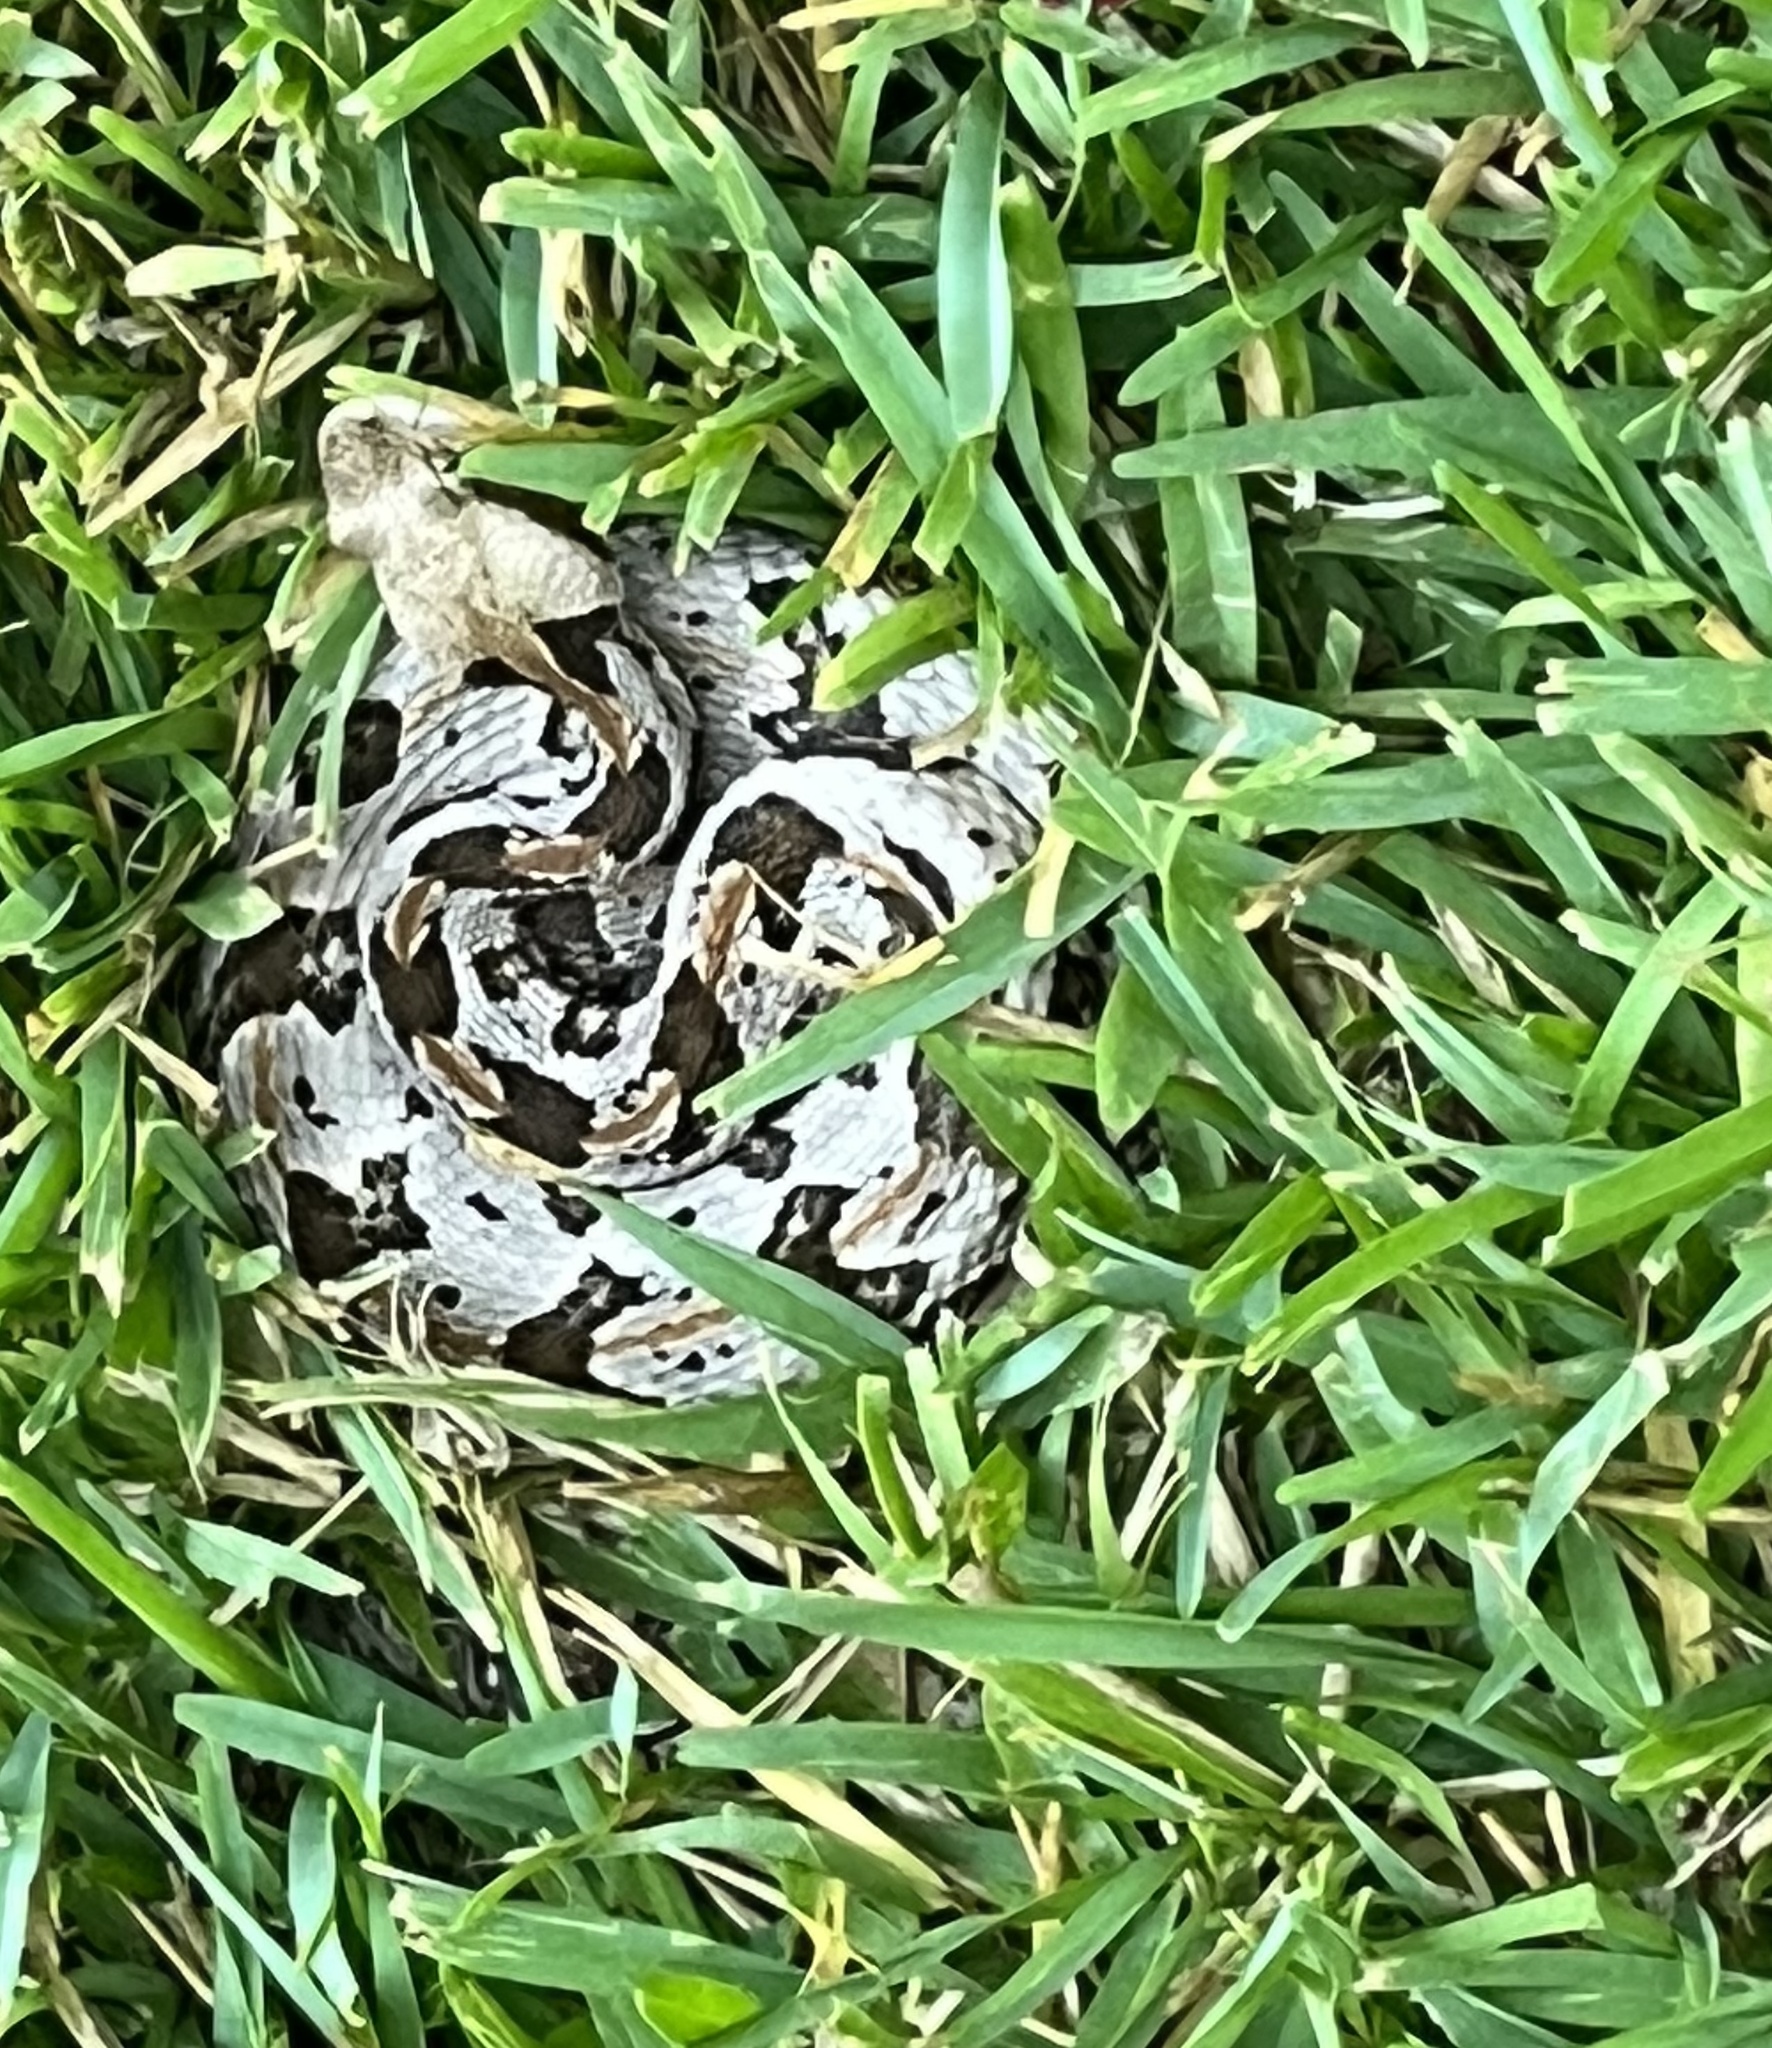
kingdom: Animalia
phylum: Chordata
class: Squamata
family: Viperidae
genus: Crotalus
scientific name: Crotalus horridus
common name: Timber rattlesnake
